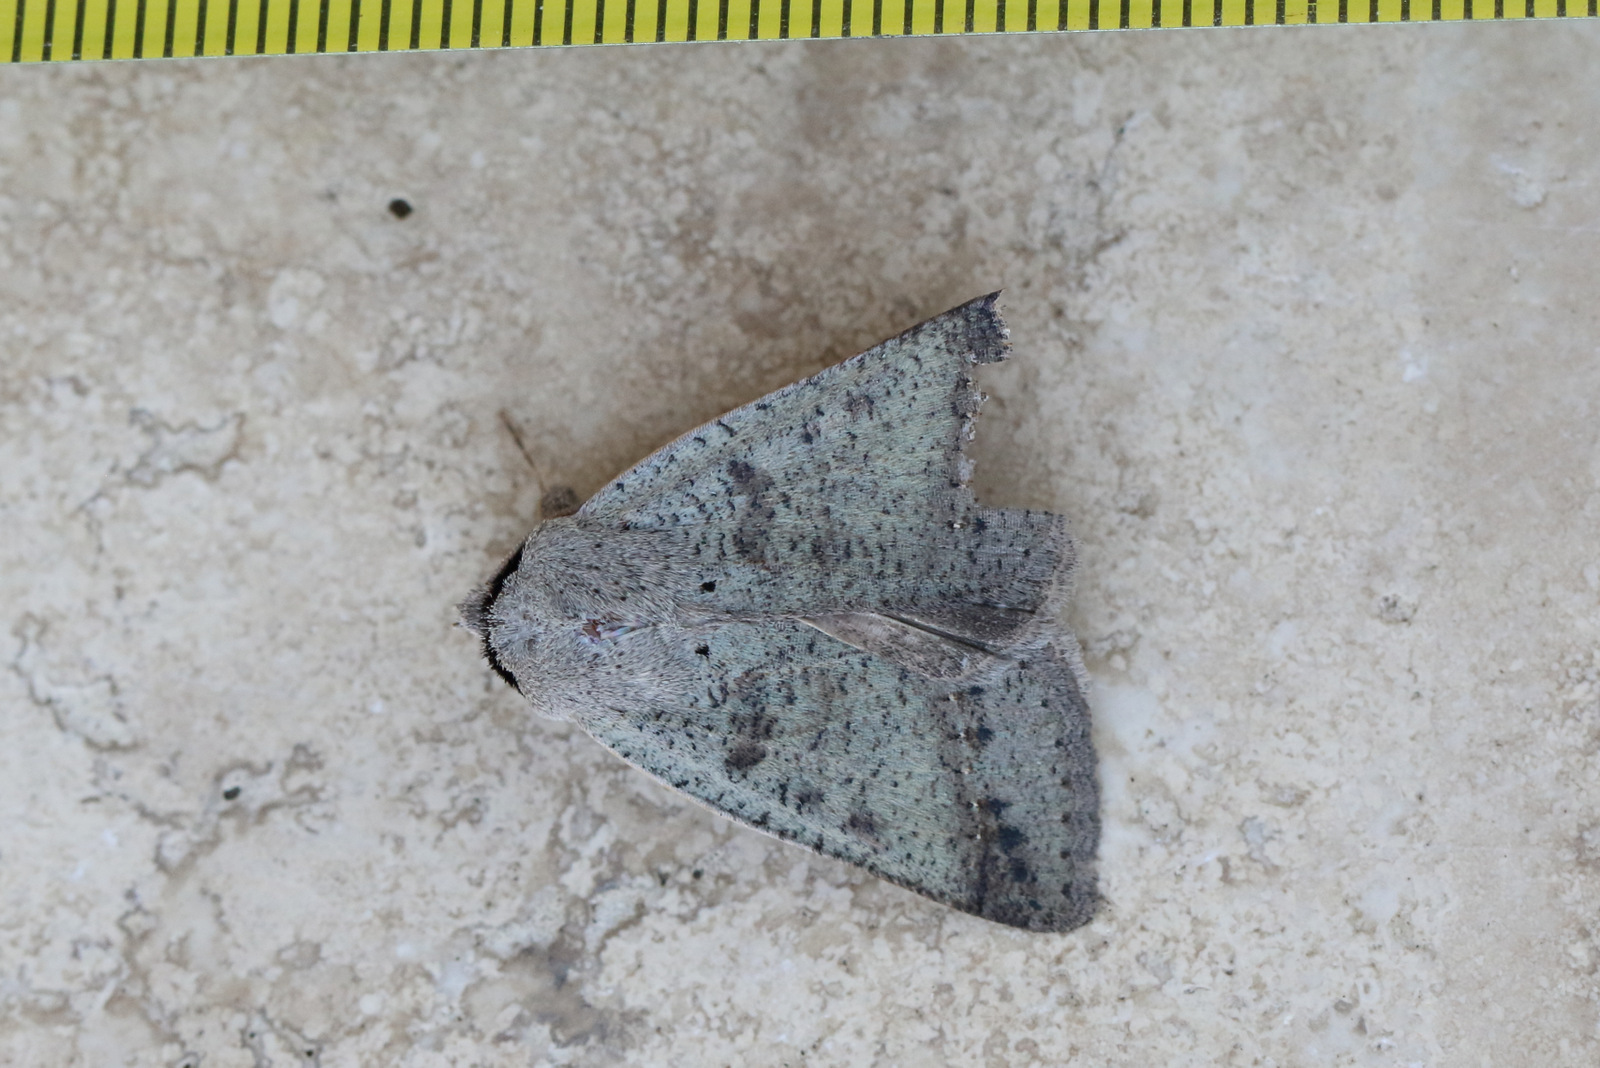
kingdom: Animalia
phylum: Arthropoda
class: Insecta
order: Lepidoptera
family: Erebidae
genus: Pantydia
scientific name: Pantydia sparsa
